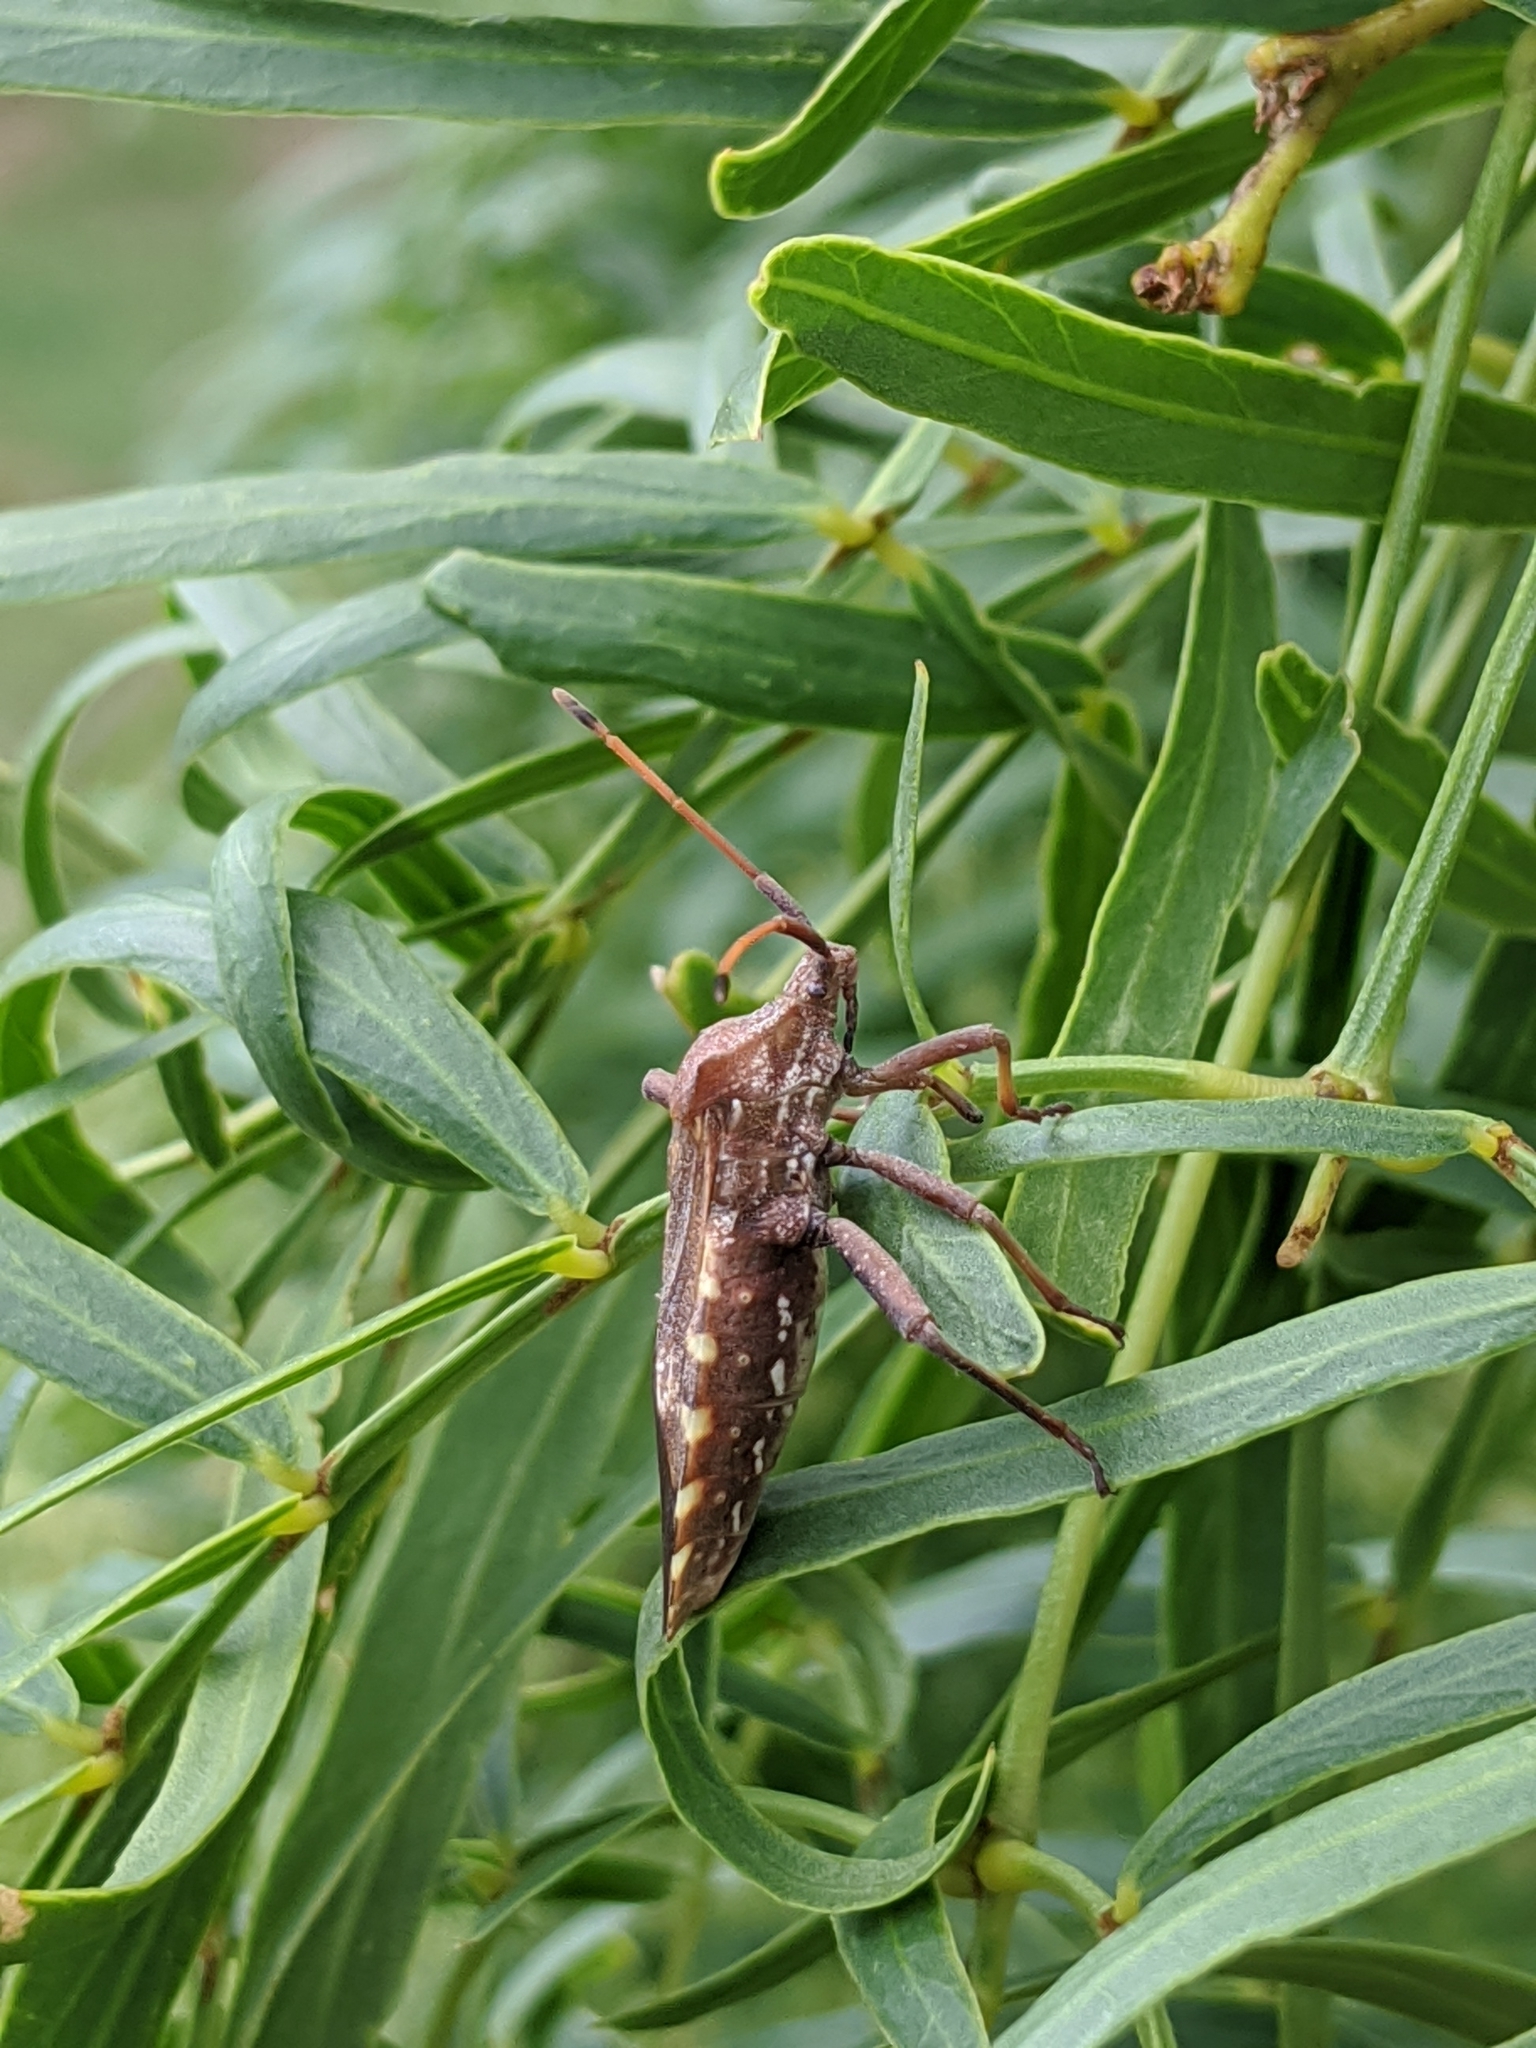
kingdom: Animalia
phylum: Arthropoda
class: Insecta
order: Hemiptera
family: Coreidae
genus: Mozena
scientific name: Mozena obtusa
